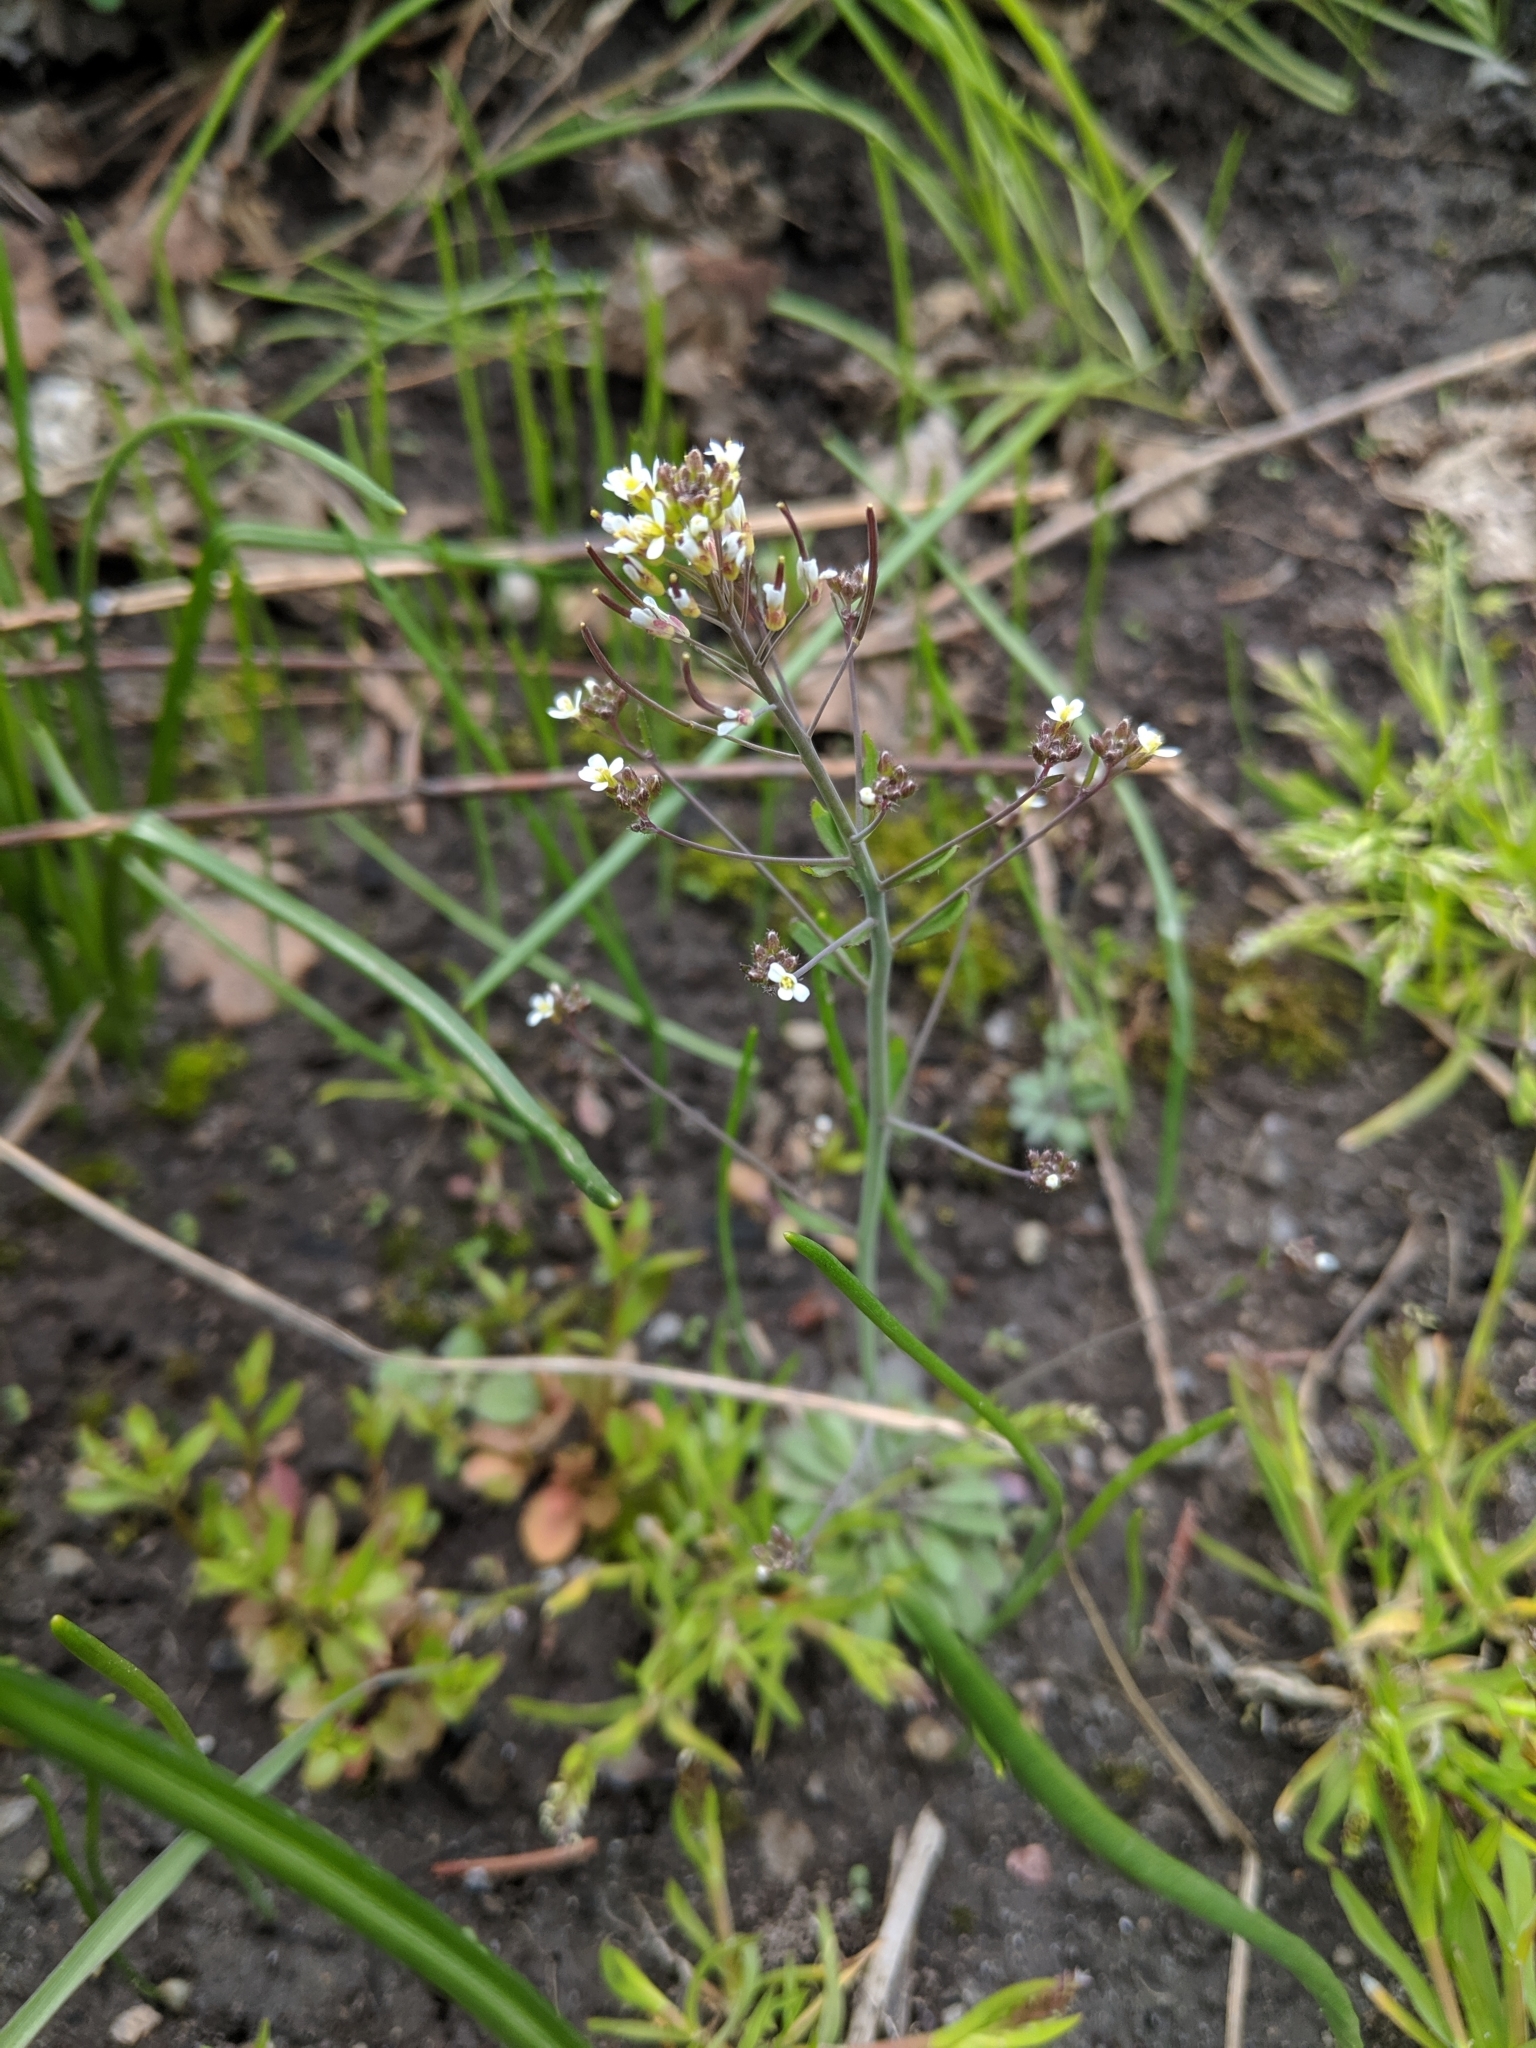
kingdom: Plantae
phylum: Tracheophyta
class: Magnoliopsida
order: Brassicales
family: Brassicaceae
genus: Arabidopsis
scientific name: Arabidopsis thaliana
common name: Thale cress
